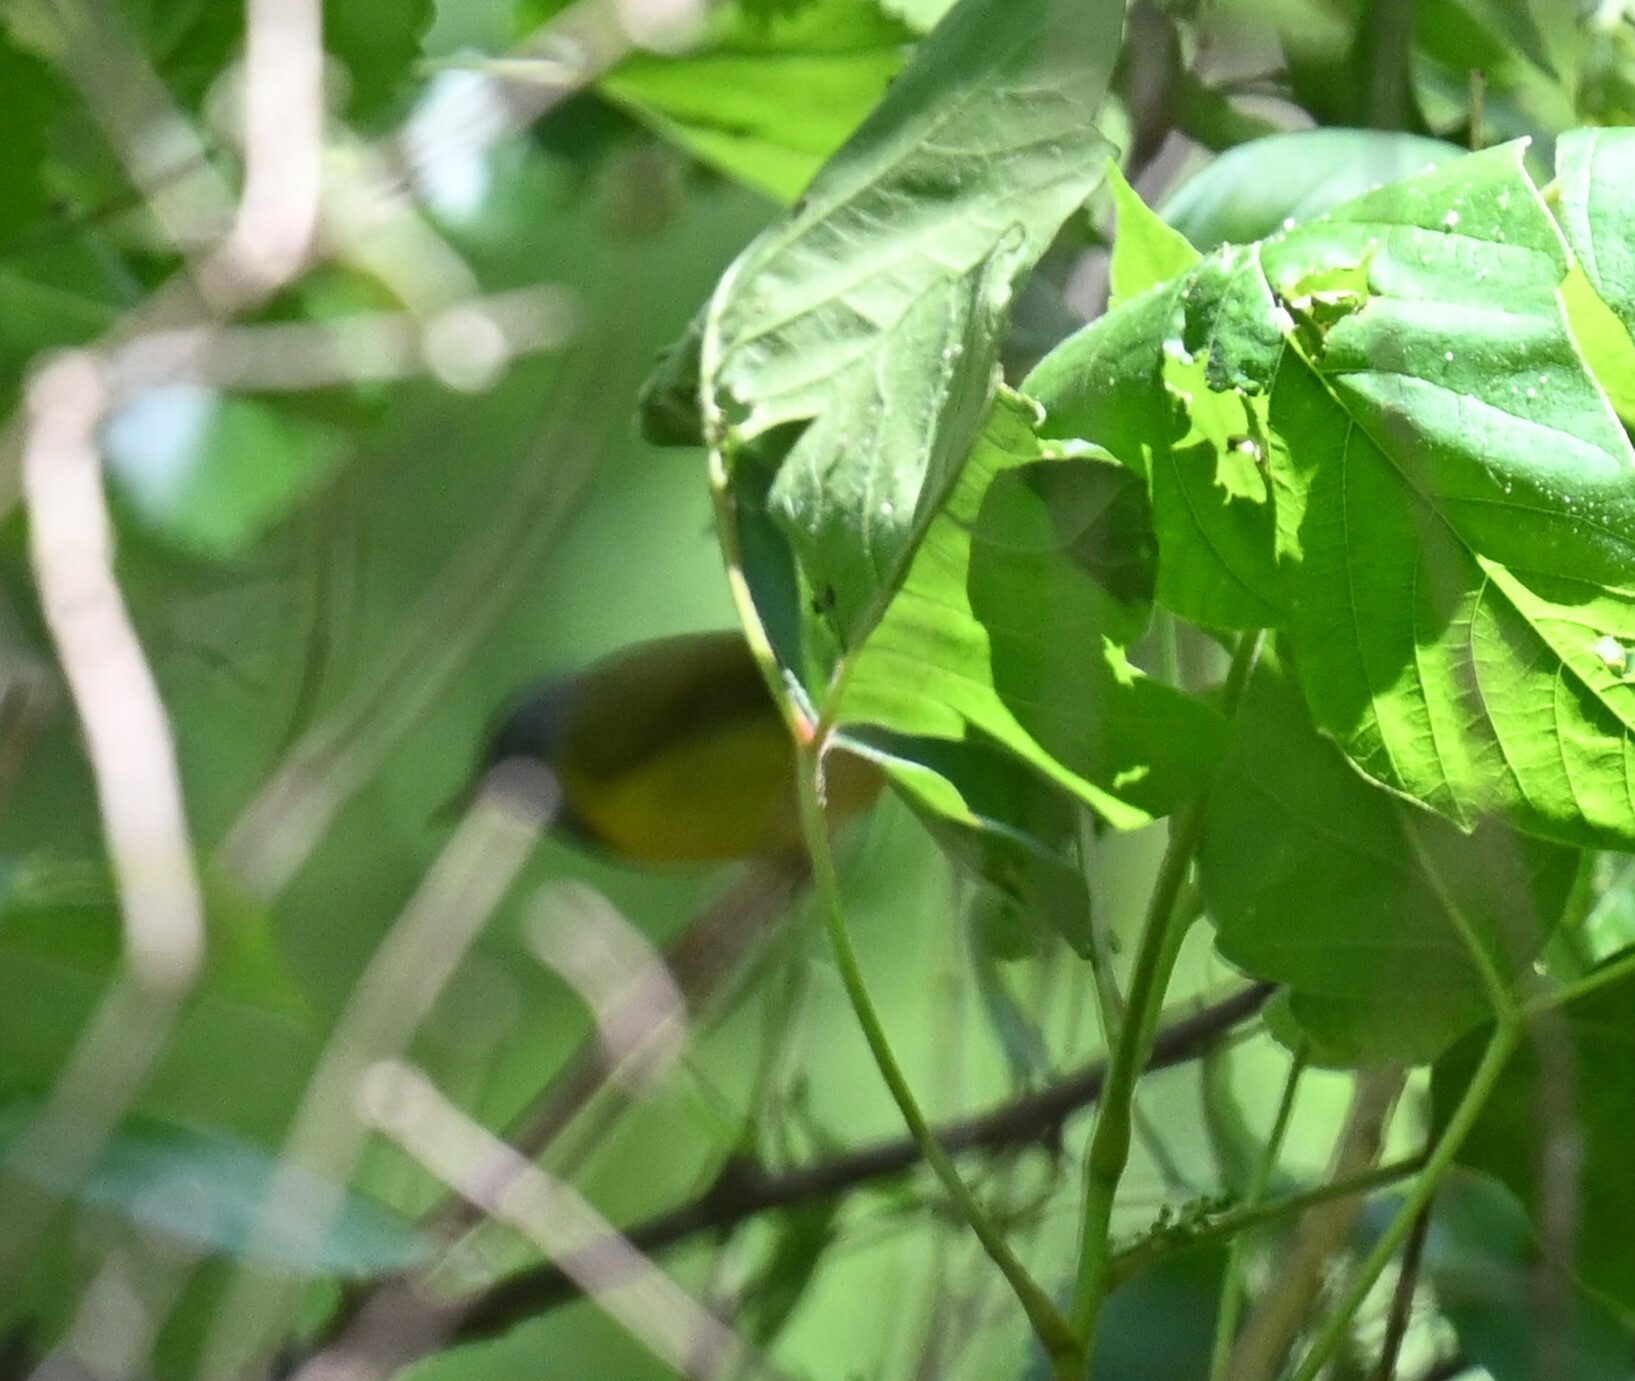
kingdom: Animalia
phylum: Chordata
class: Aves
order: Passeriformes
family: Parulidae
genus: Geothlypis
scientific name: Geothlypis philadelphia
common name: Mourning warbler
